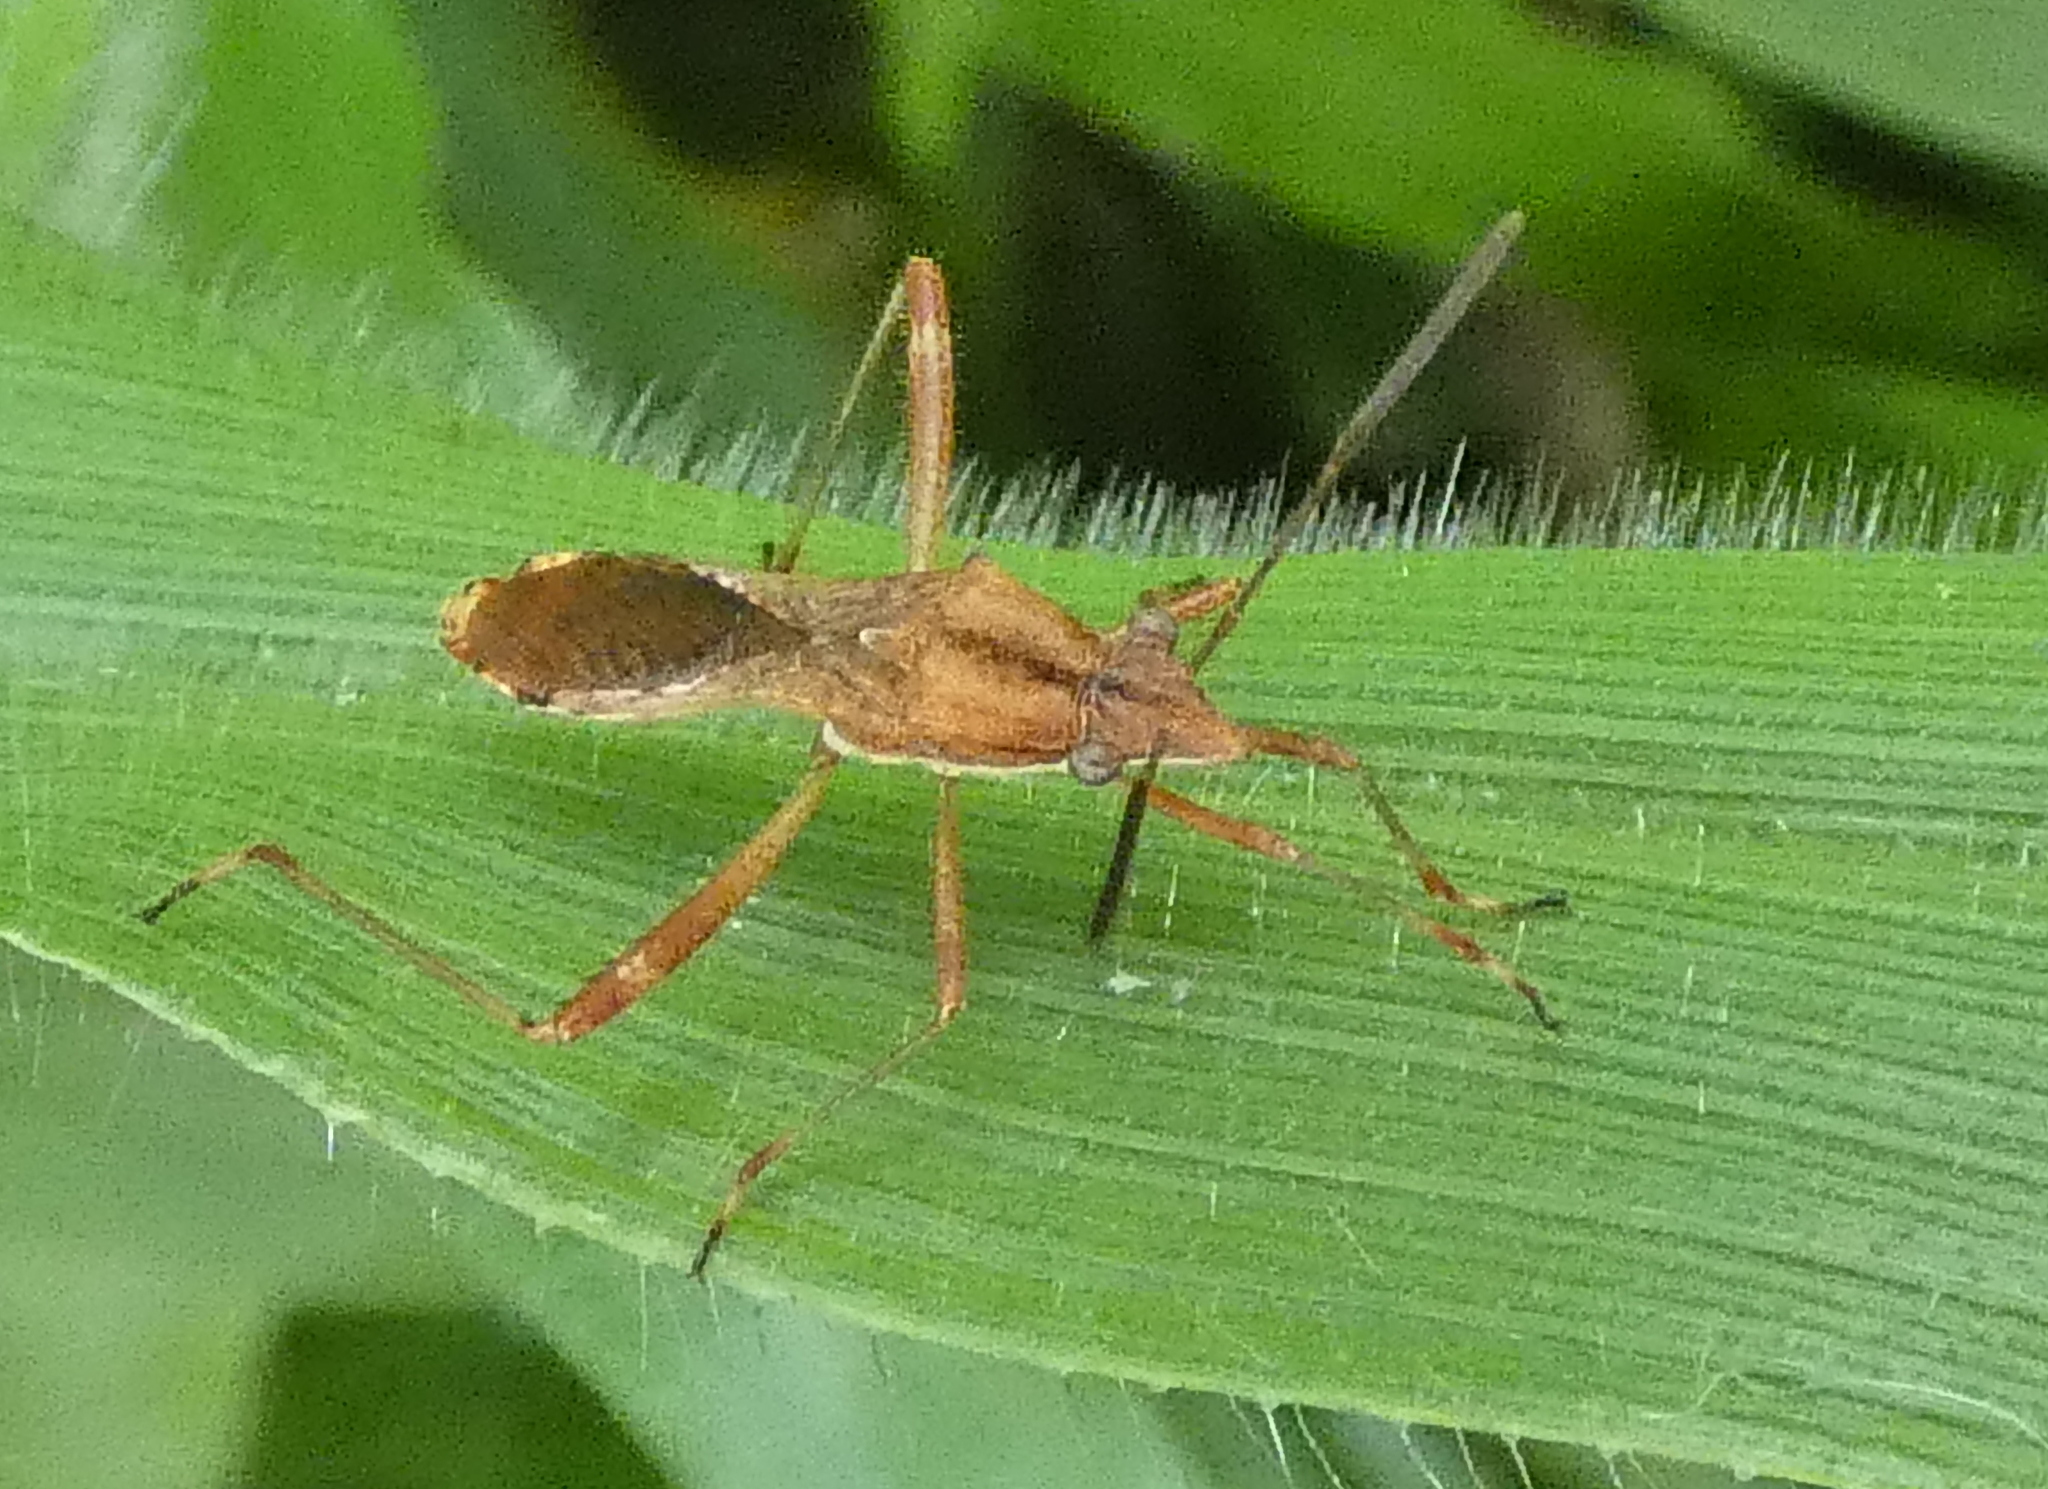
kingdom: Animalia
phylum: Arthropoda
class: Insecta
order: Hemiptera
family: Alydidae
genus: Neomegalotomus
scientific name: Neomegalotomus parvus
